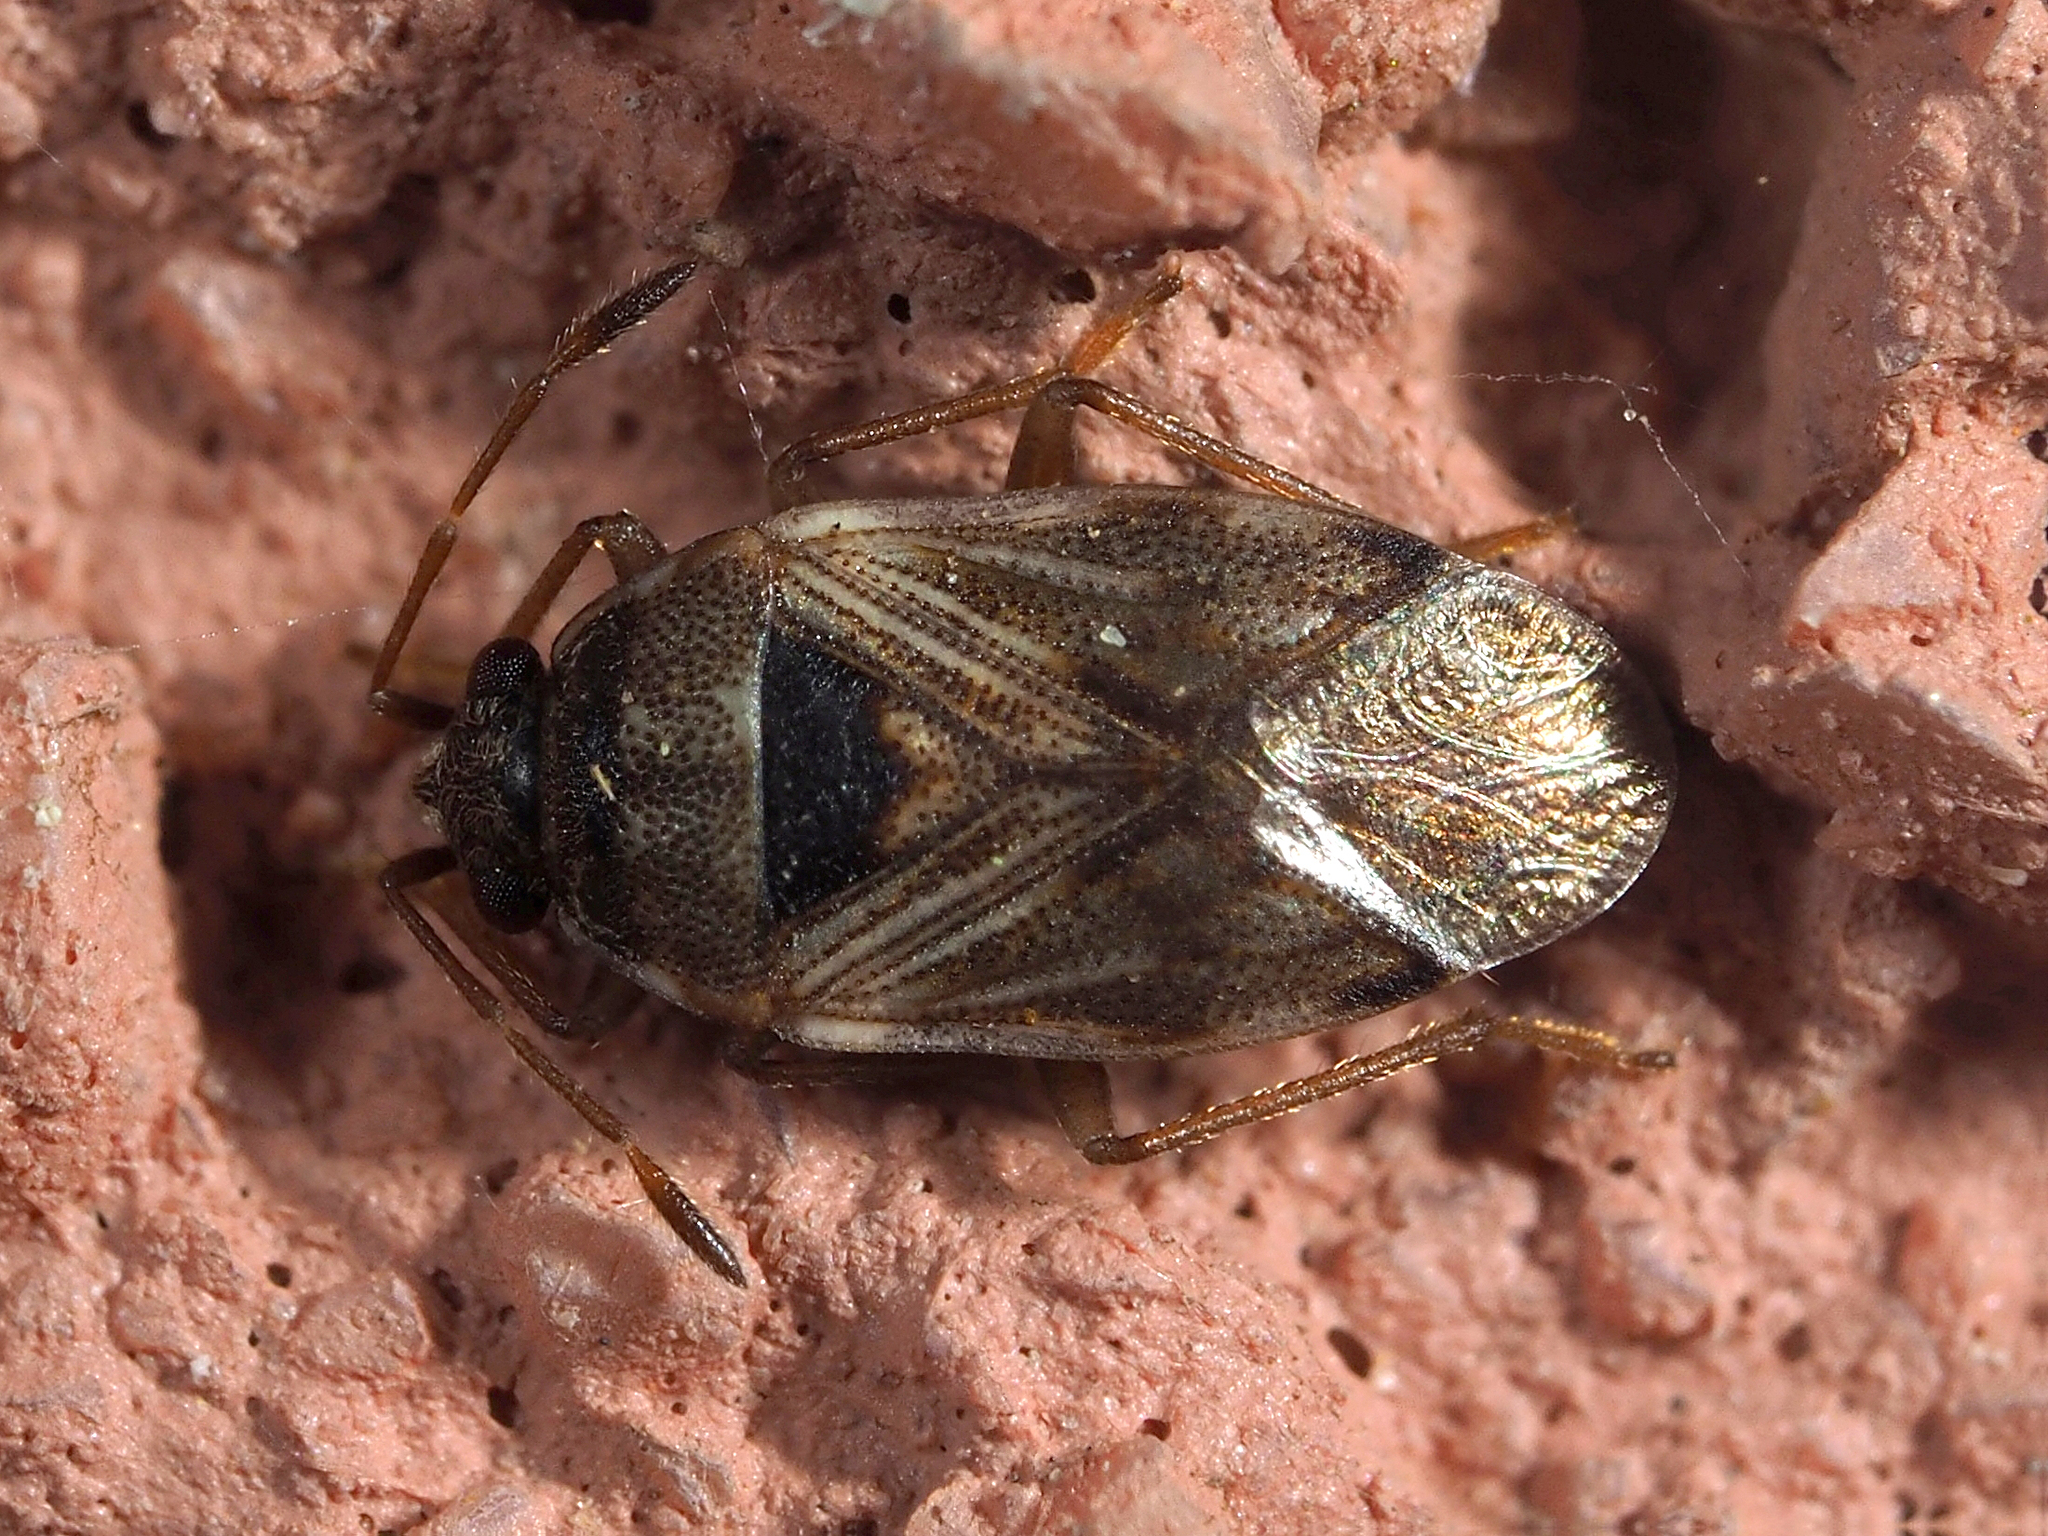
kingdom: Animalia
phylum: Arthropoda
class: Insecta
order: Hemiptera
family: Rhyparochromidae
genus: Hyalochilus
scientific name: Hyalochilus ovatulus
